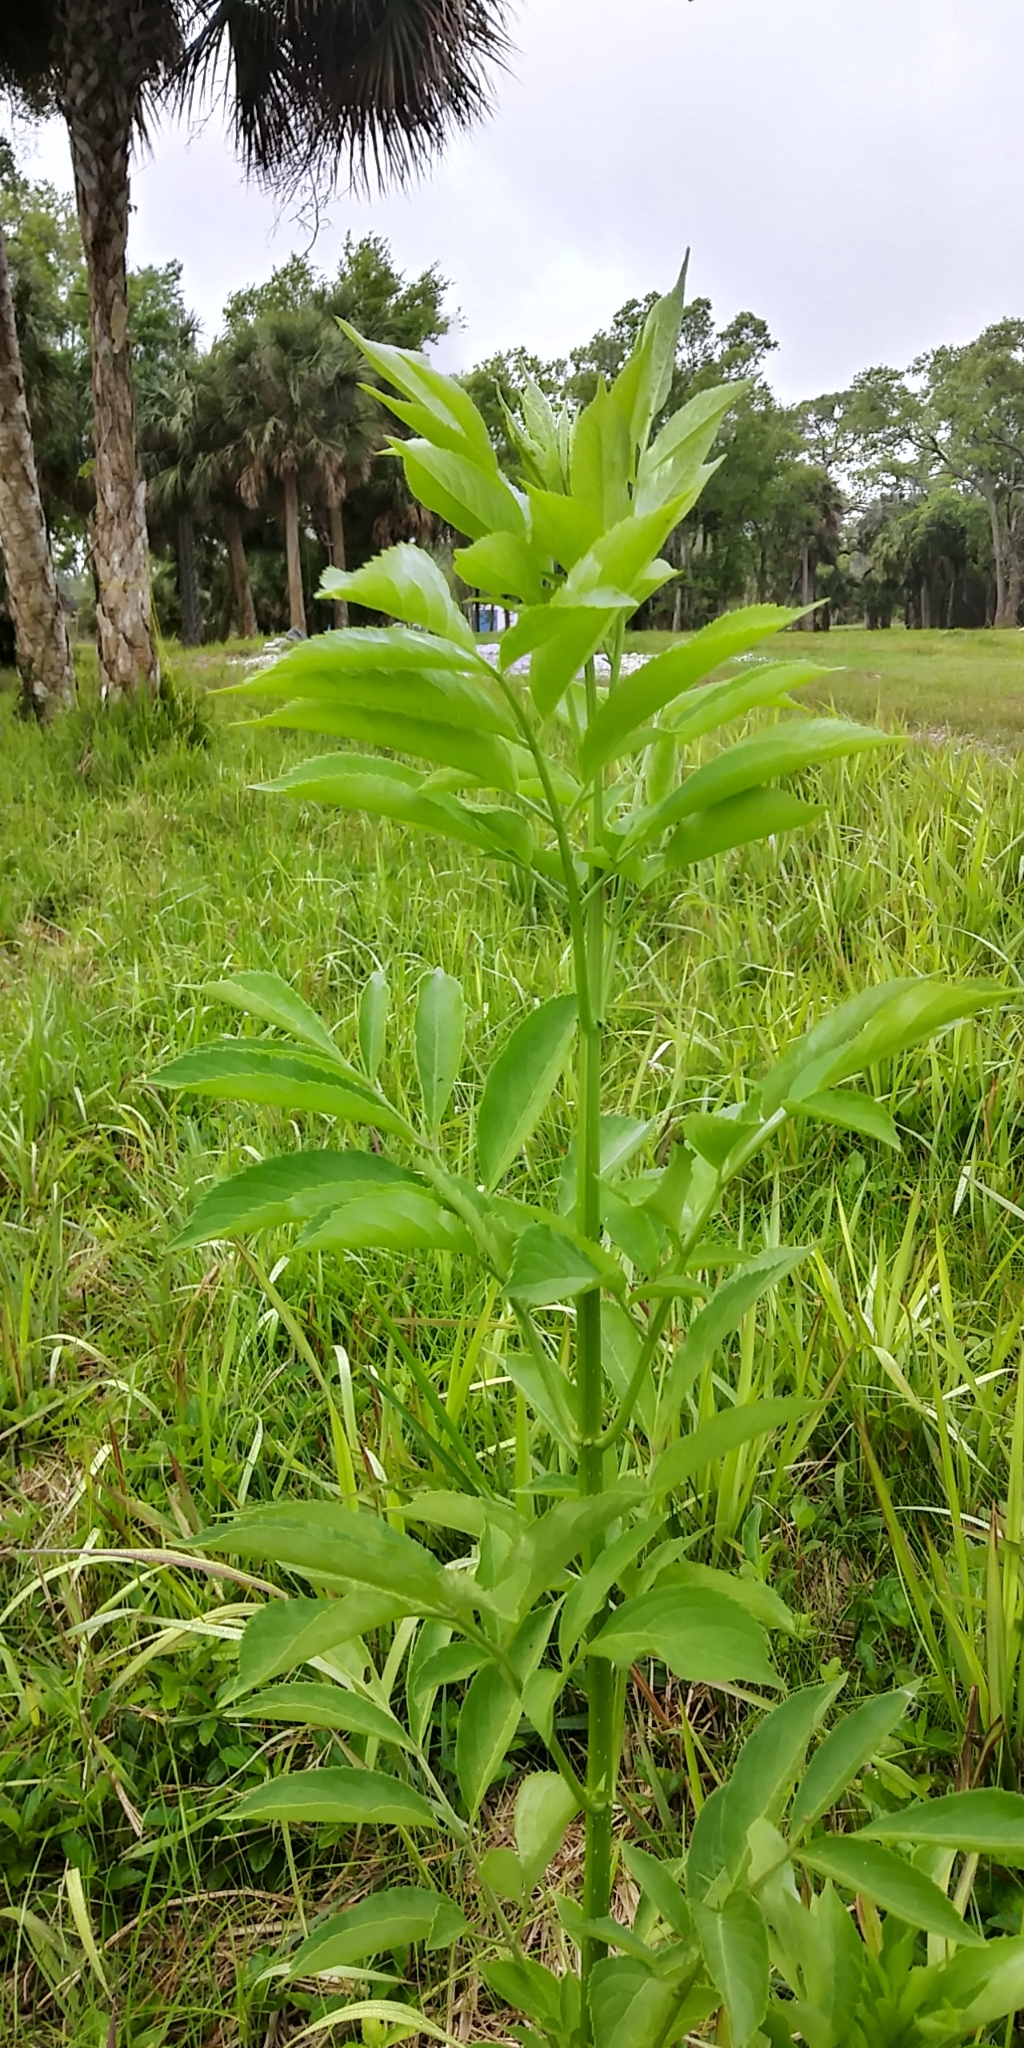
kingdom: Plantae
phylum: Tracheophyta
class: Magnoliopsida
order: Dipsacales
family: Viburnaceae
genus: Sambucus
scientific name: Sambucus canadensis
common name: American elder
